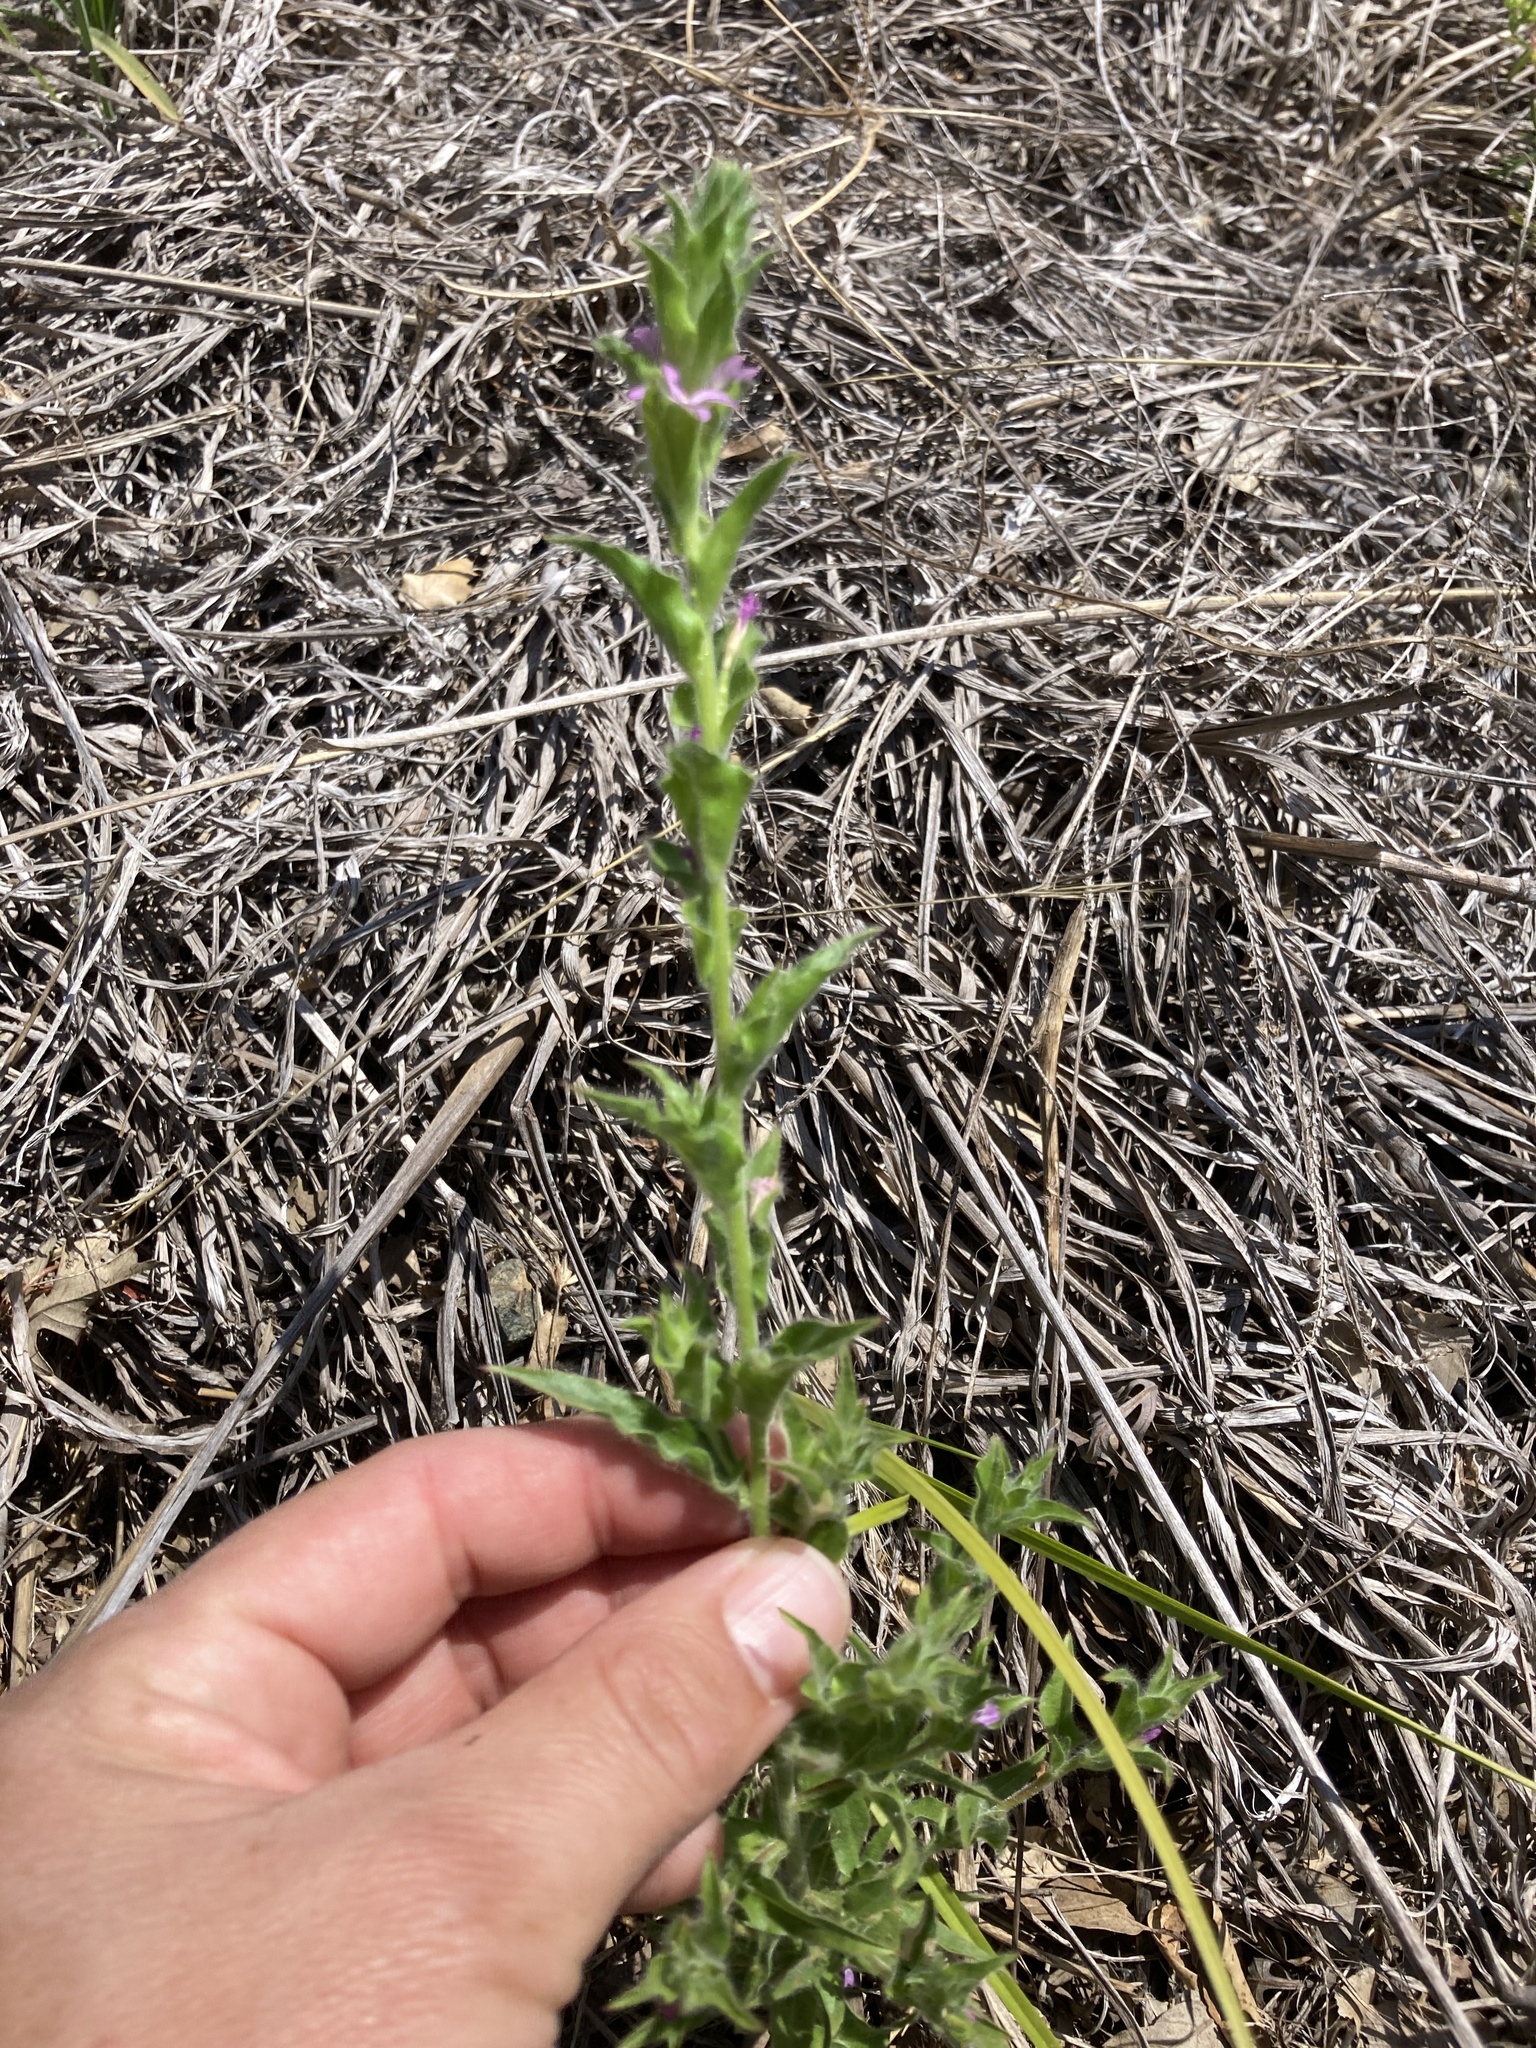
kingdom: Plantae
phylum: Tracheophyta
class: Magnoliopsida
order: Myrtales
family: Onagraceae
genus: Epilobium
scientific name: Epilobium densiflorum
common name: Dense spike-primrose
